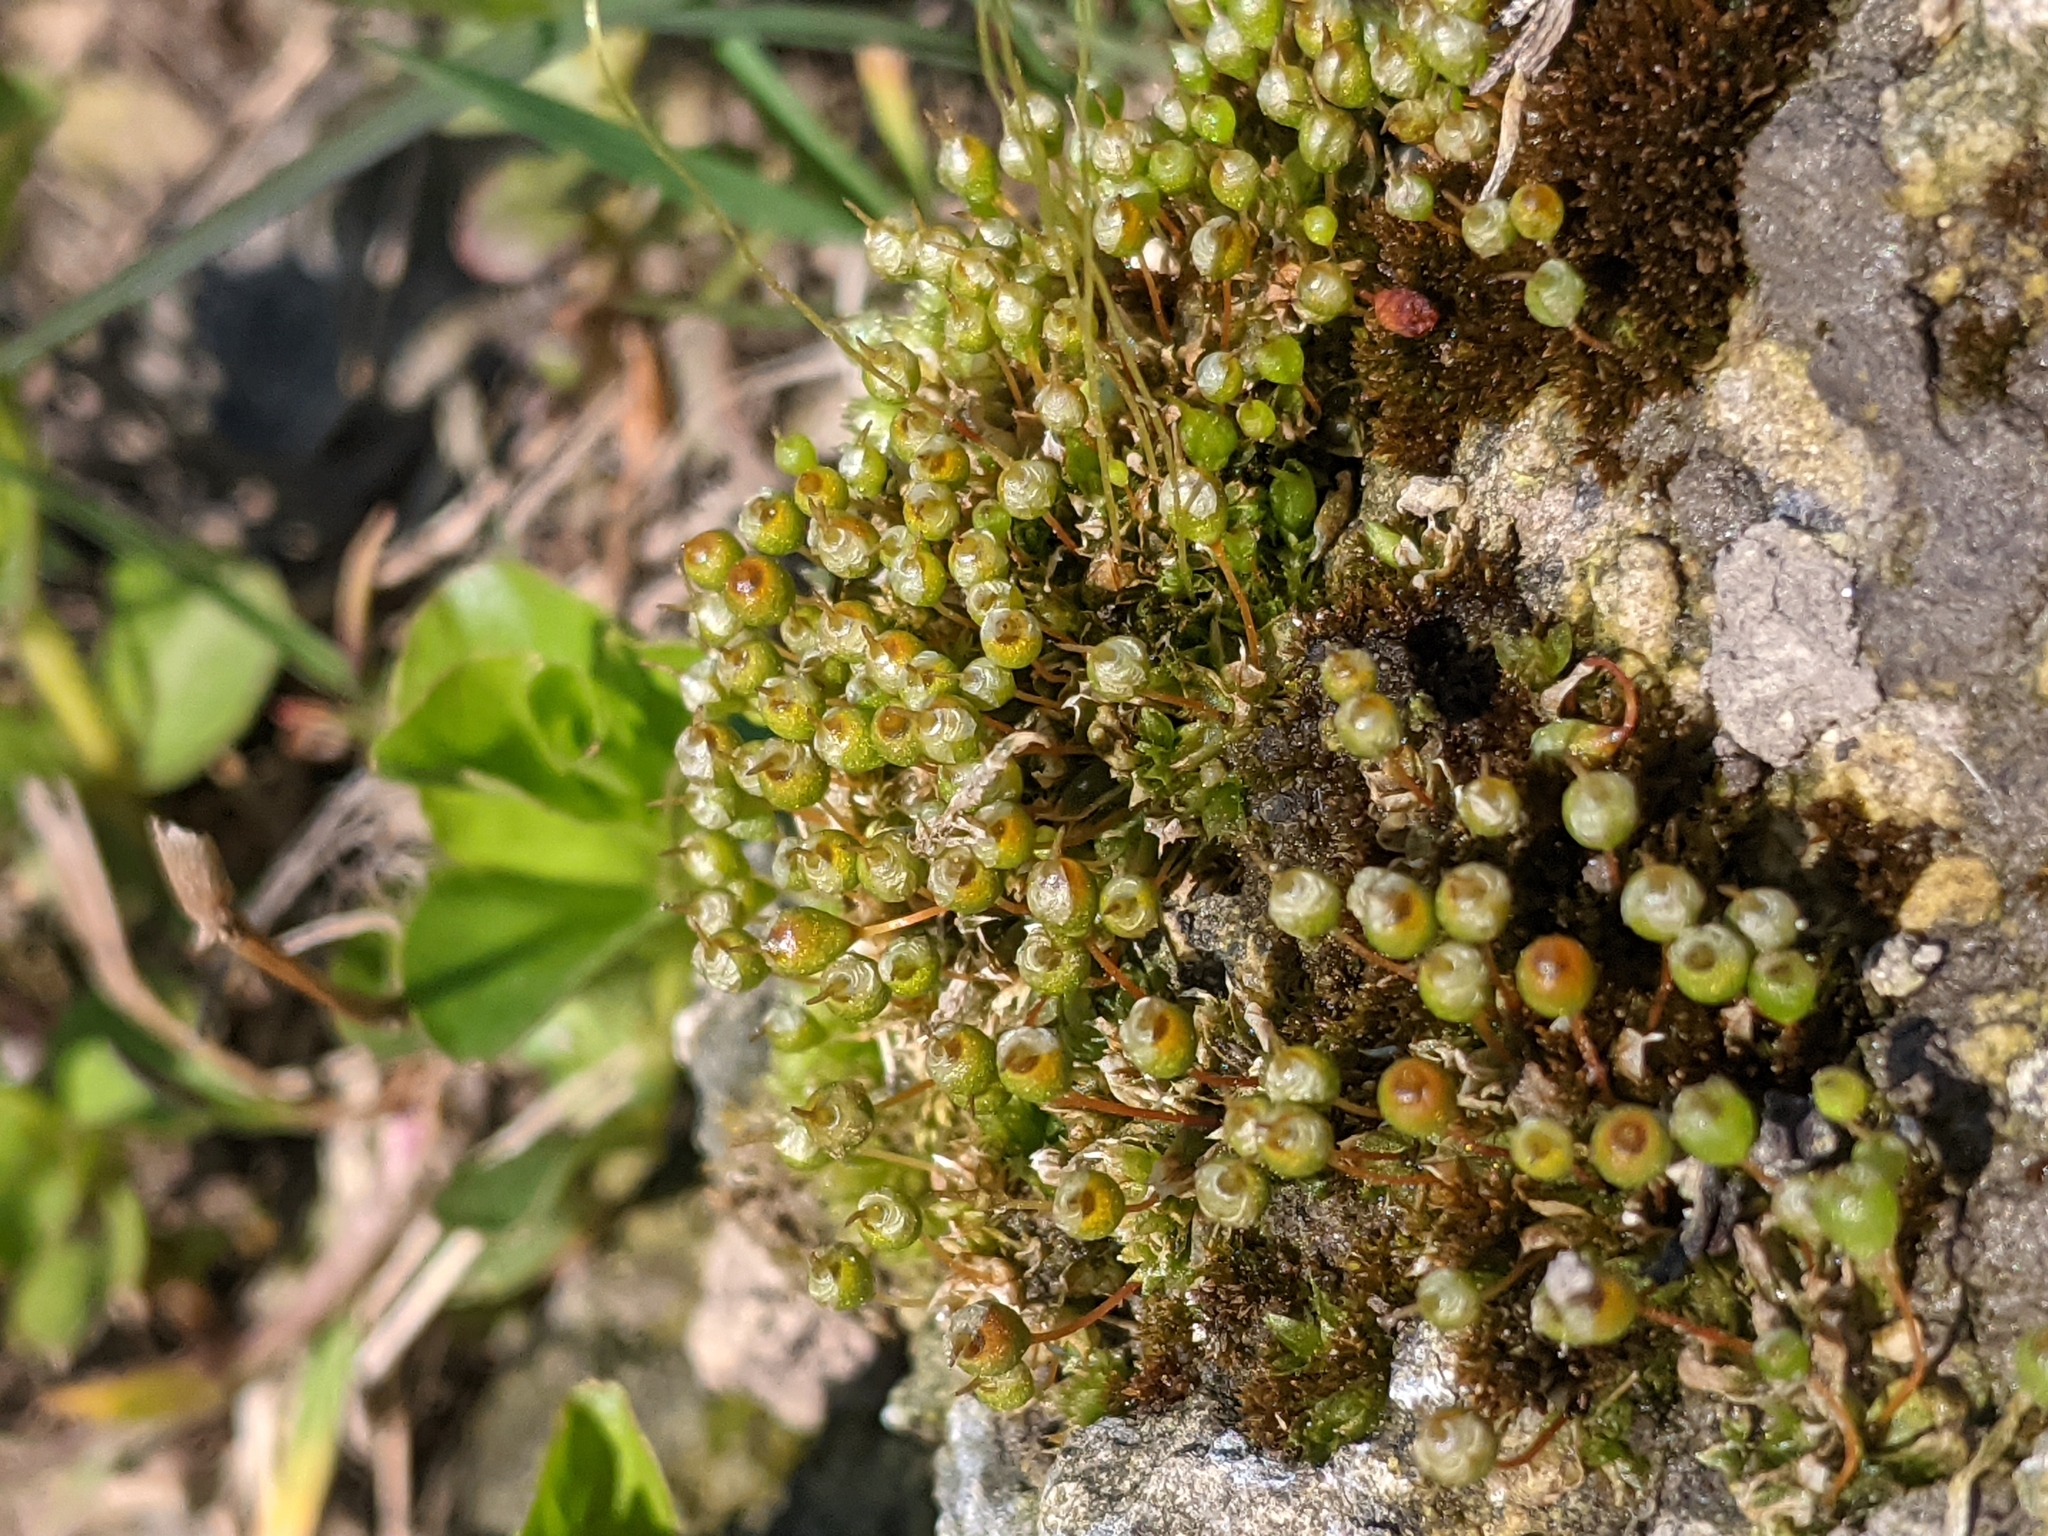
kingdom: Plantae
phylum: Bryophyta
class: Bryopsida
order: Funariales
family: Funariaceae
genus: Physcomitrium
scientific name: Physcomitrium pyriforme
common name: Common bladder-moss
